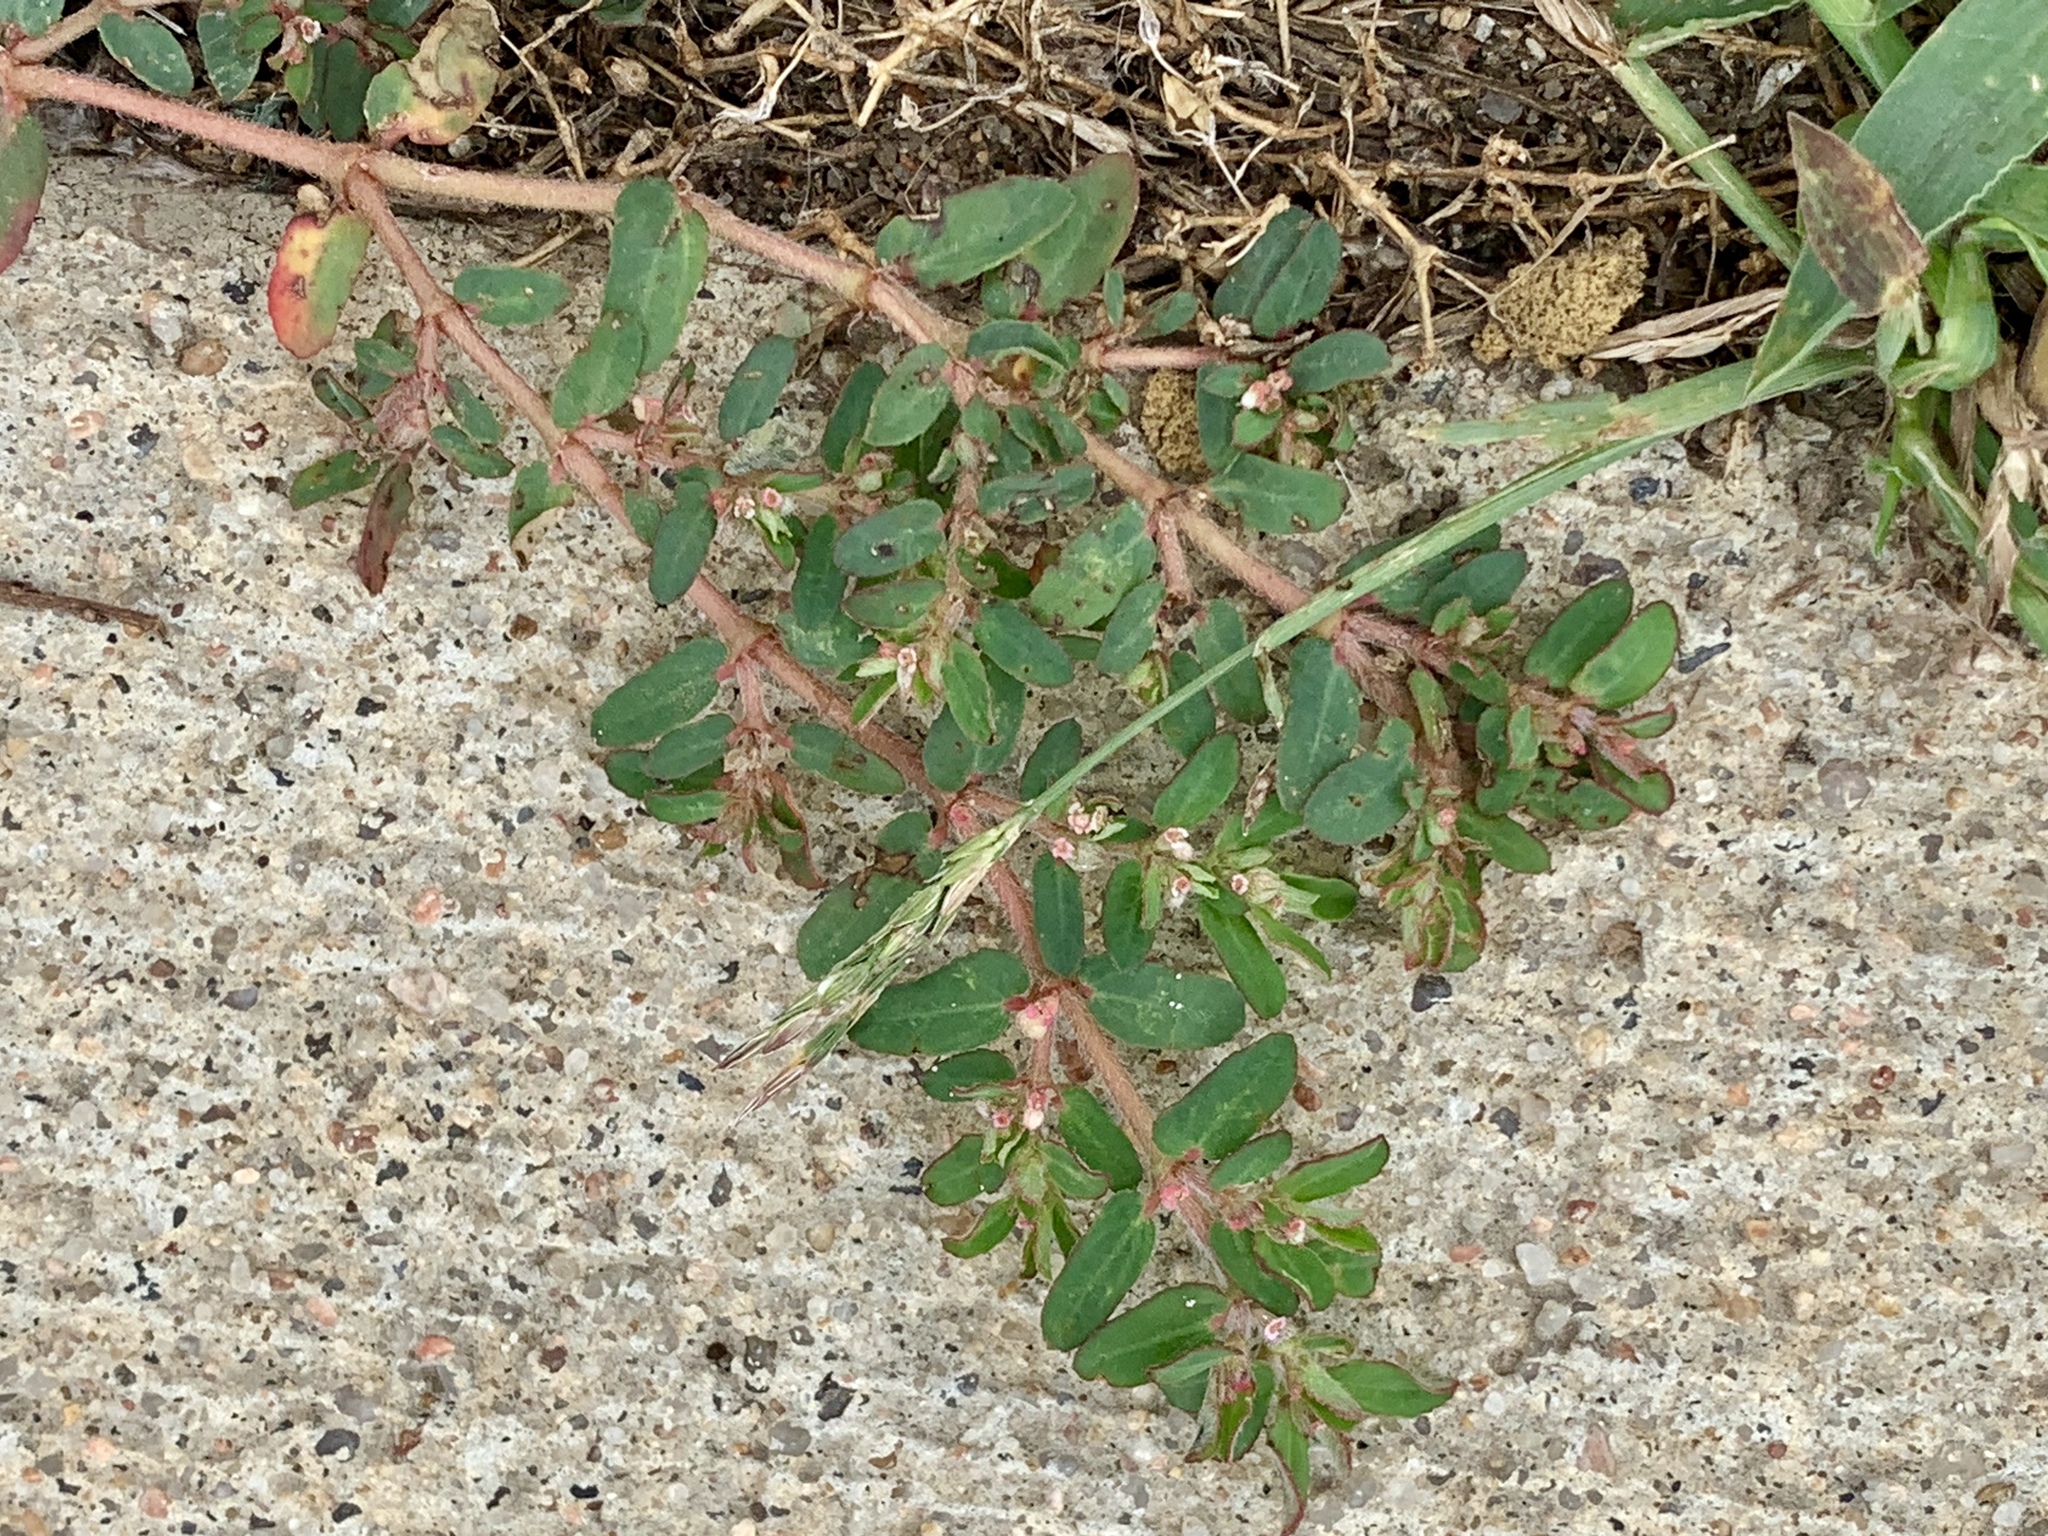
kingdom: Plantae
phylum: Tracheophyta
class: Magnoliopsida
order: Malpighiales
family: Euphorbiaceae
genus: Euphorbia
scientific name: Euphorbia maculata
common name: Spotted spurge
